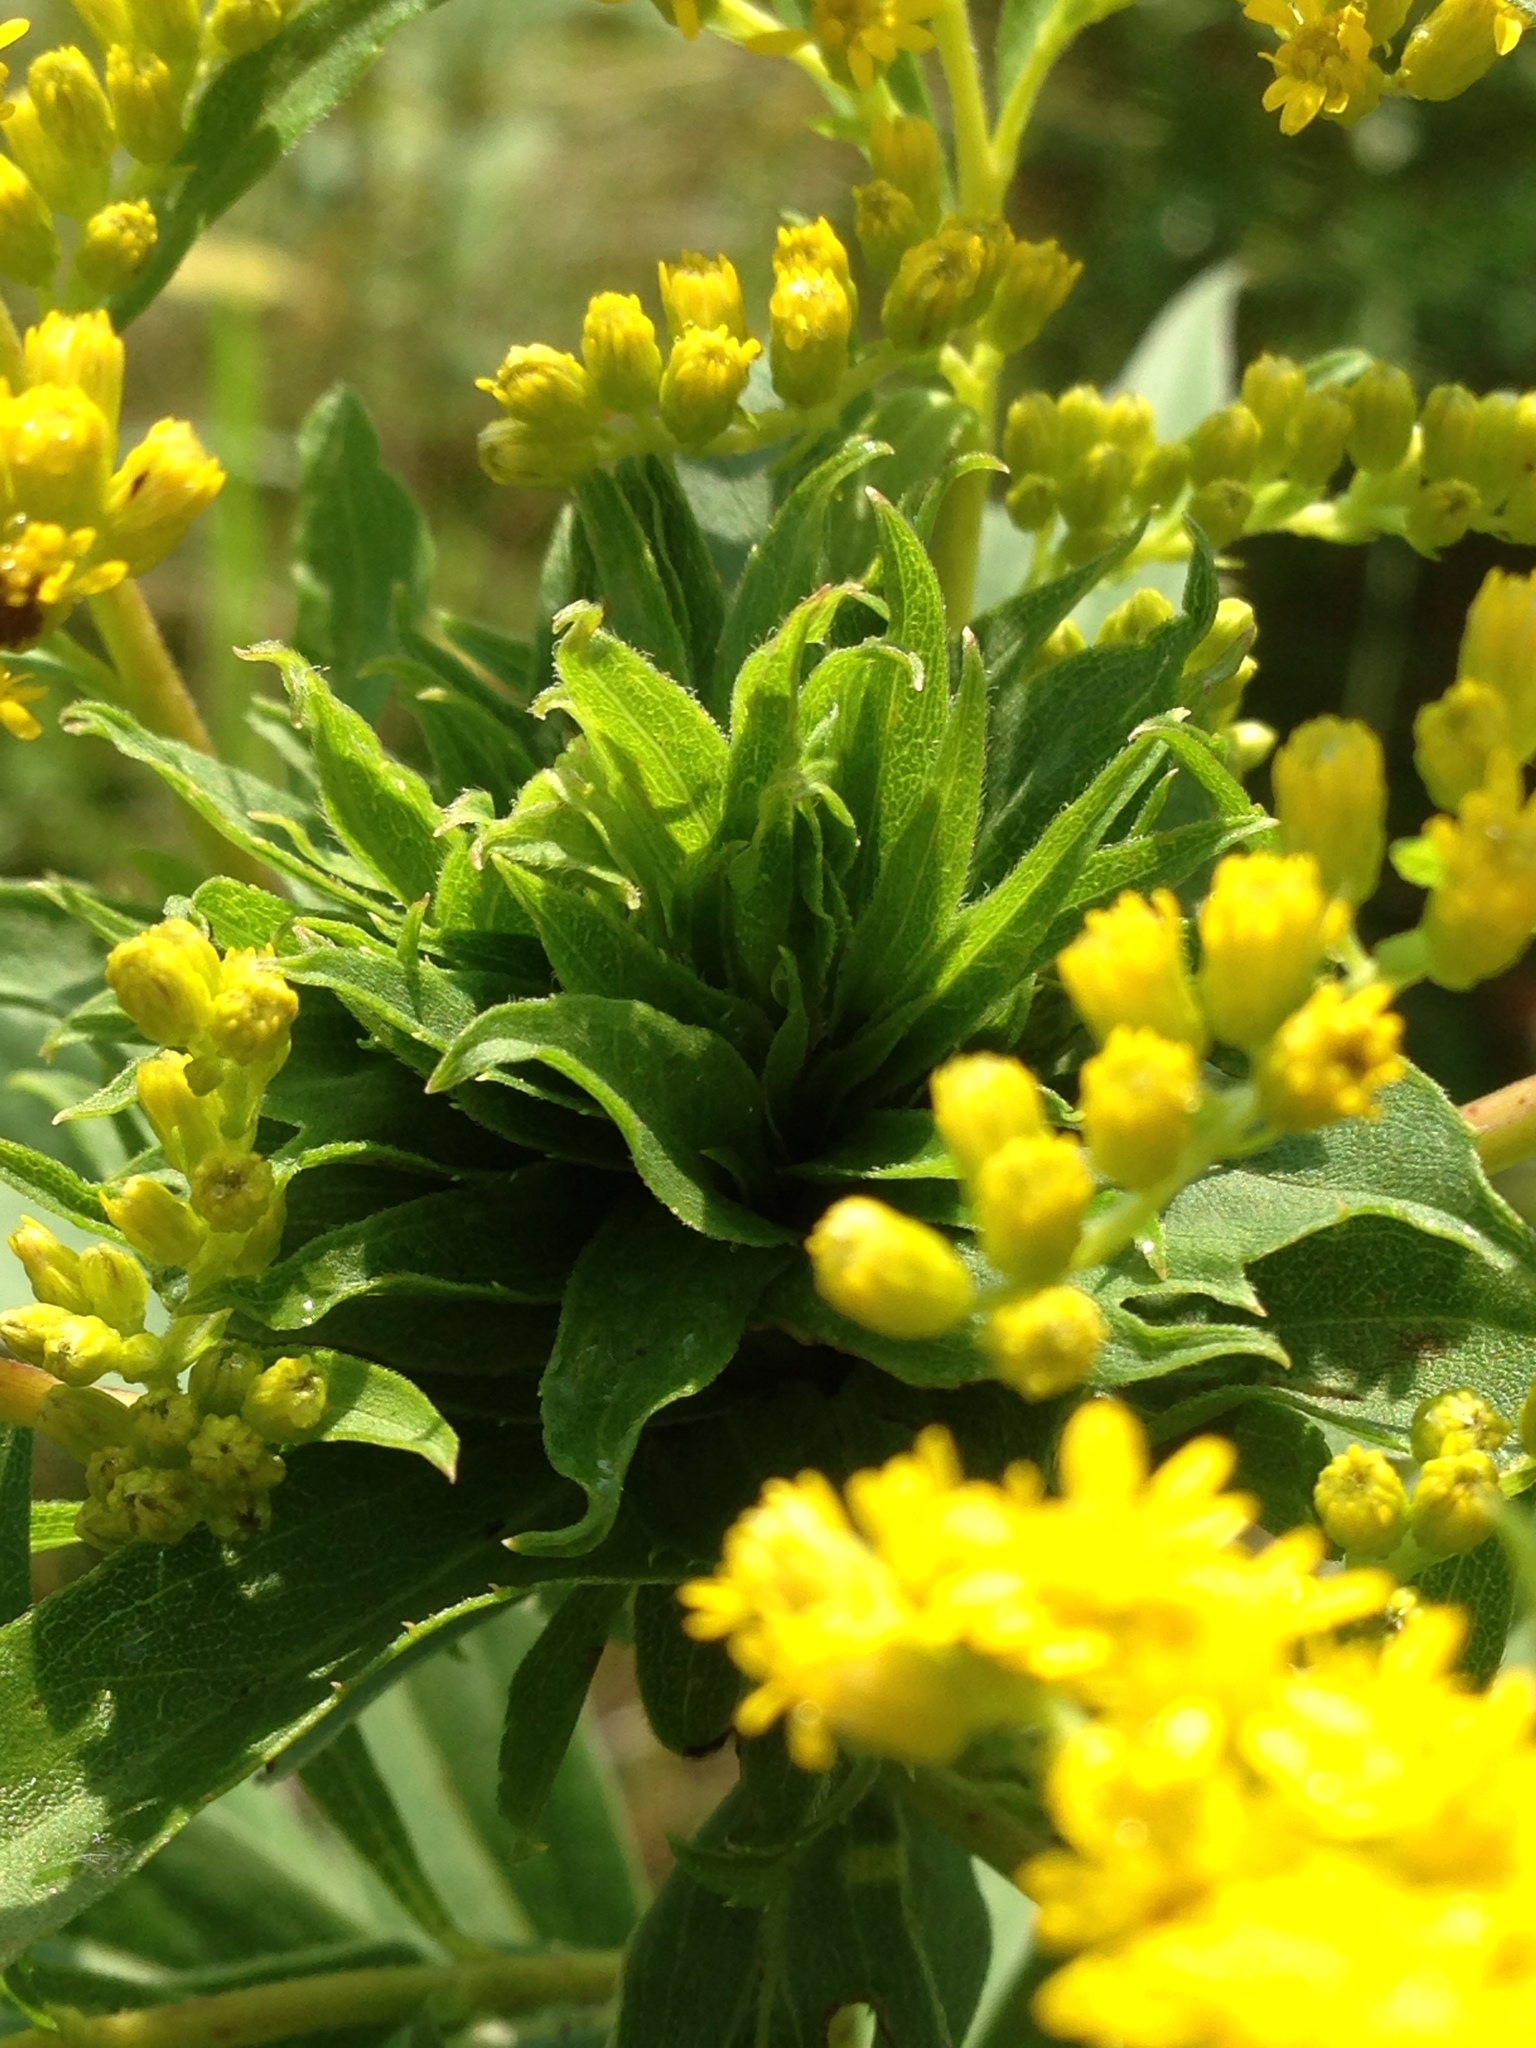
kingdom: Animalia
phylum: Arthropoda
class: Insecta
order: Diptera
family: Cecidomyiidae
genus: Rhopalomyia
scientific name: Rhopalomyia solidaginis
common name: Goldenrod bunch gall midge
